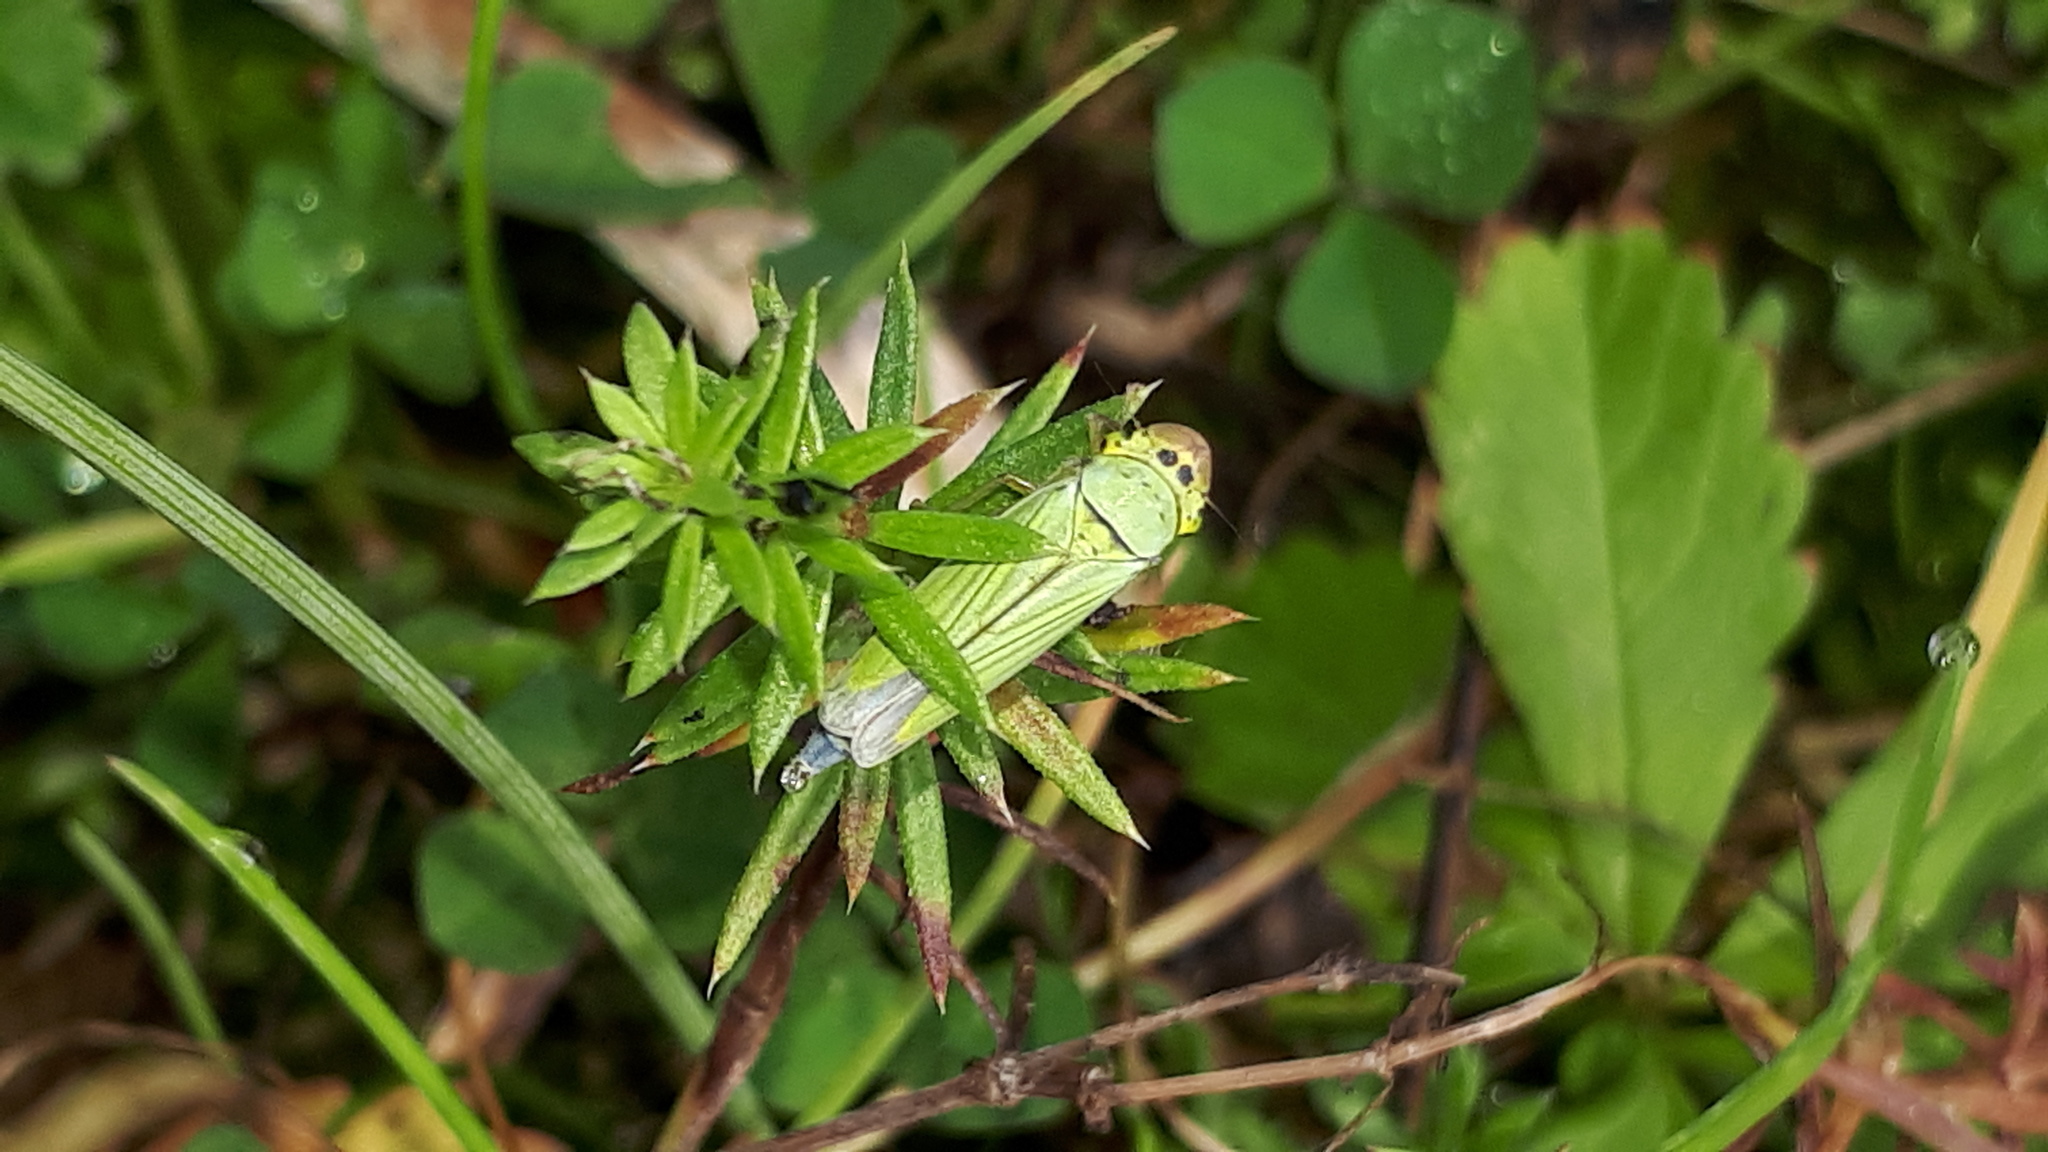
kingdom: Animalia
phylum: Arthropoda
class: Insecta
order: Hemiptera
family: Cicadellidae
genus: Cicadella
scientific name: Cicadella viridis
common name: Leafhopper
